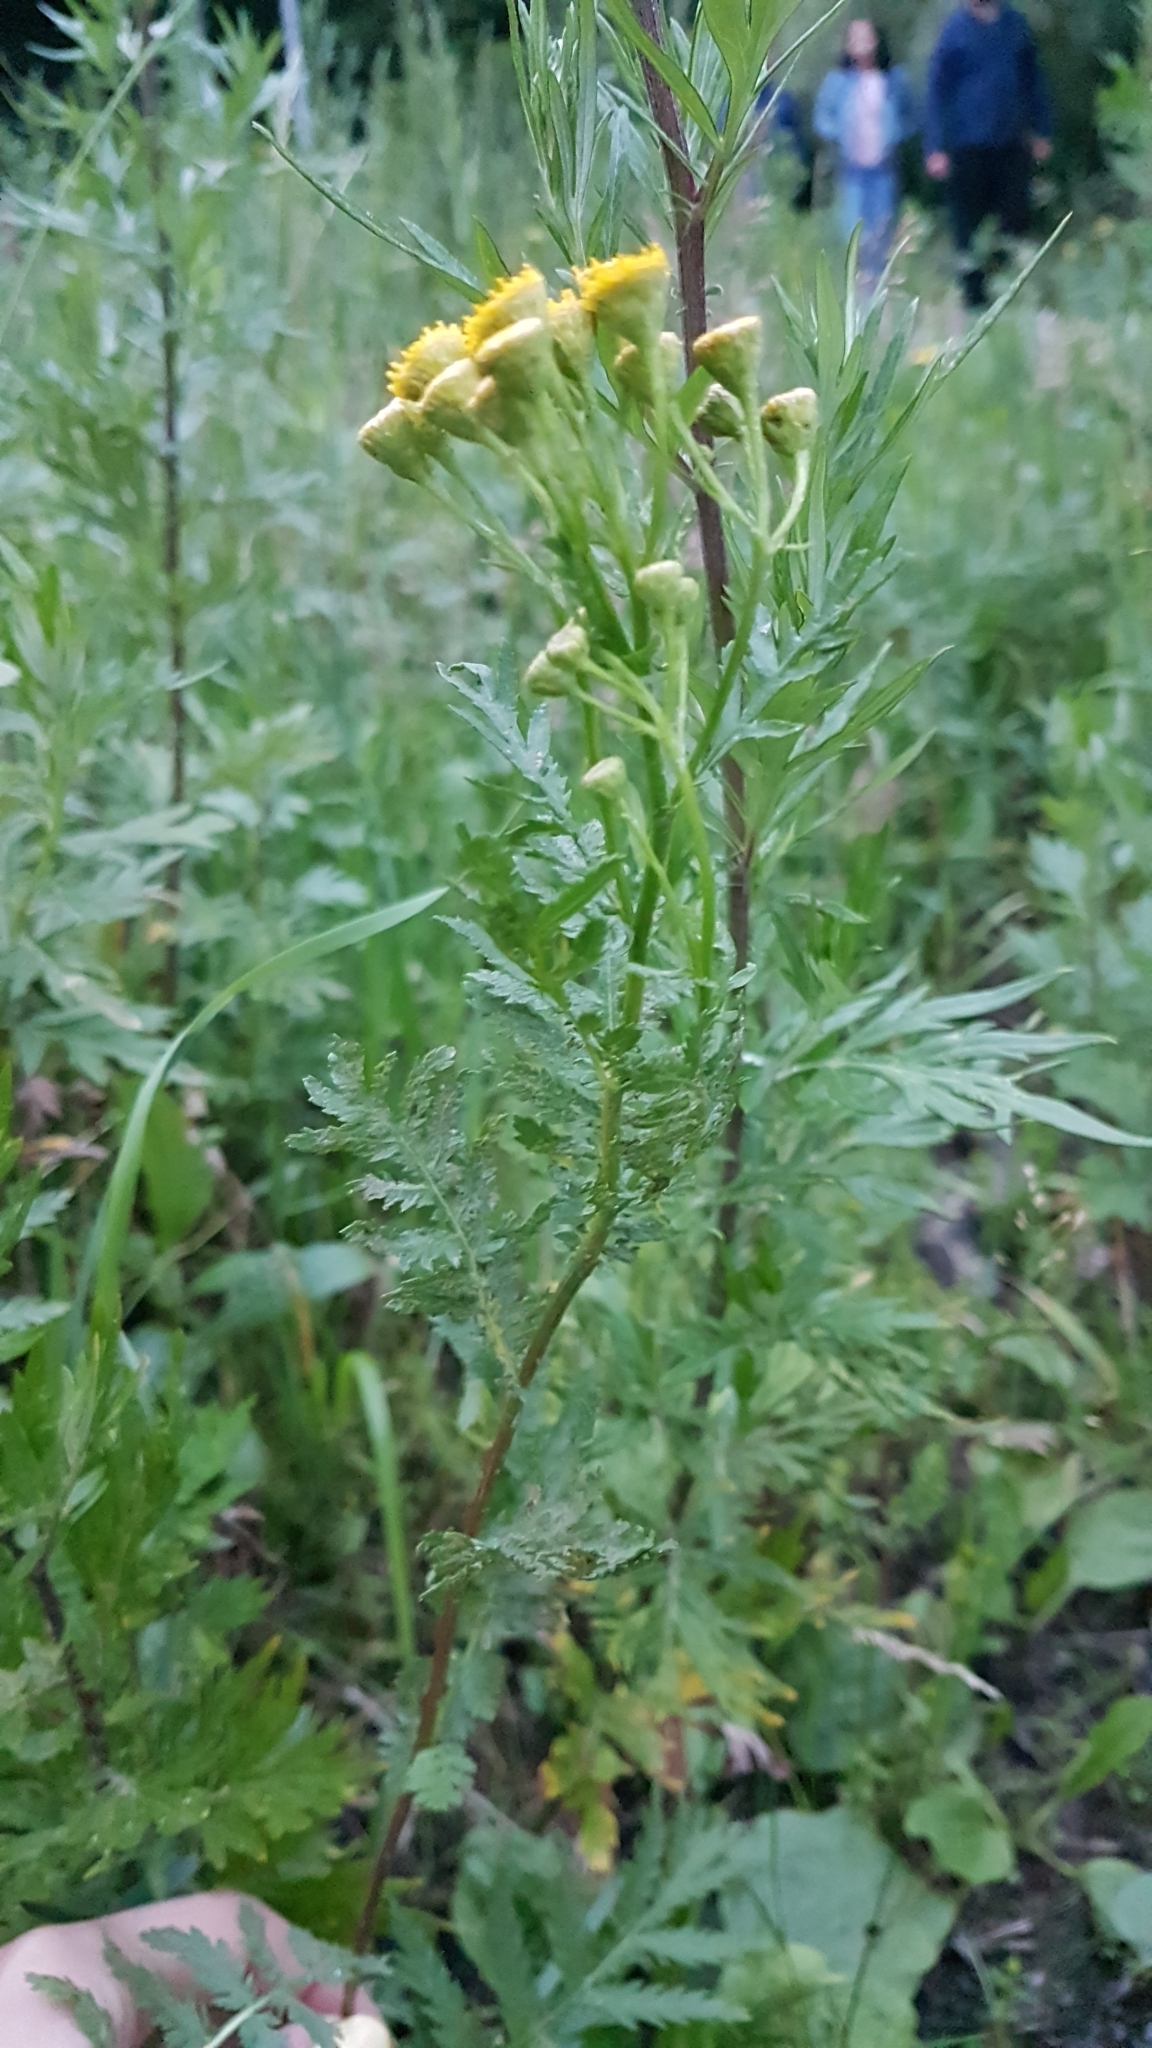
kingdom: Plantae
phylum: Tracheophyta
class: Magnoliopsida
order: Asterales
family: Asteraceae
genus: Tanacetum
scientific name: Tanacetum vulgare
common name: Common tansy
